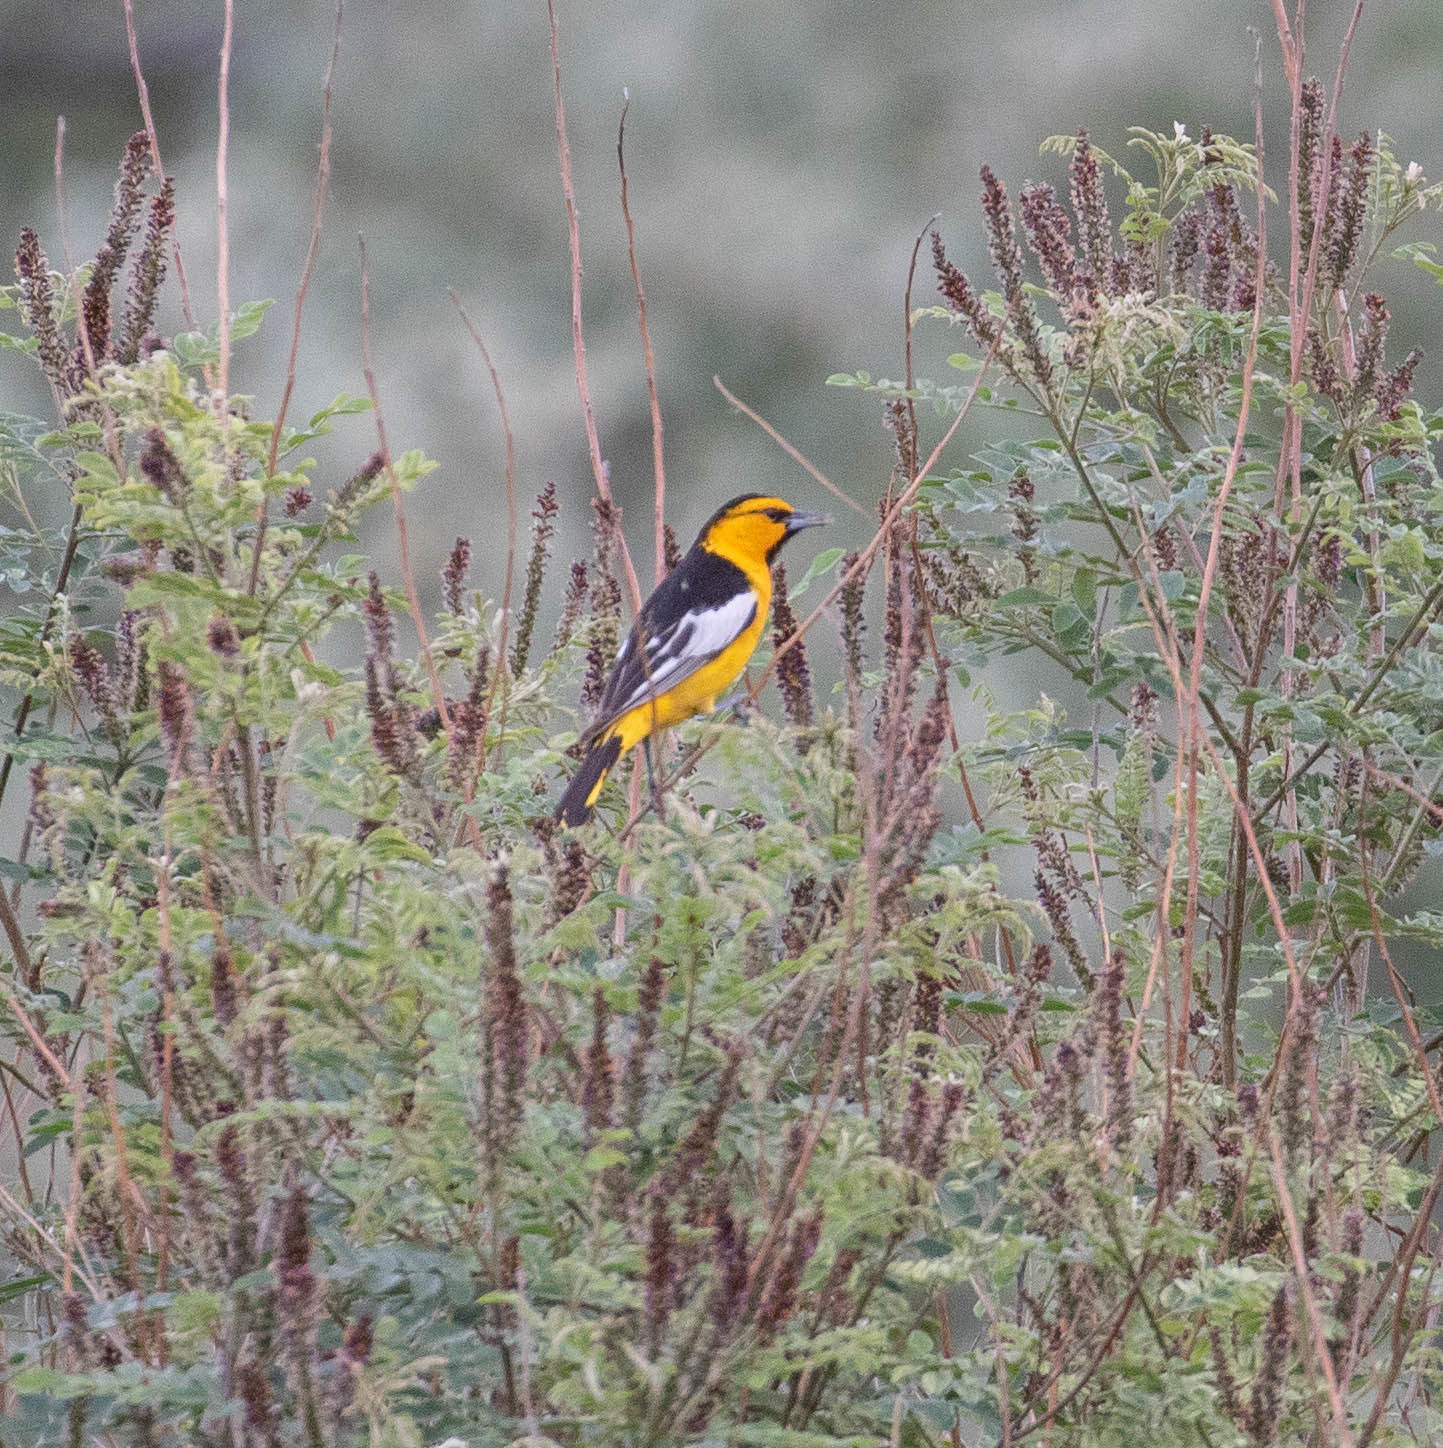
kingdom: Animalia
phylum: Chordata
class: Aves
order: Passeriformes
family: Icteridae
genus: Icterus
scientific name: Icterus bullockii
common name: Bullock's oriole
